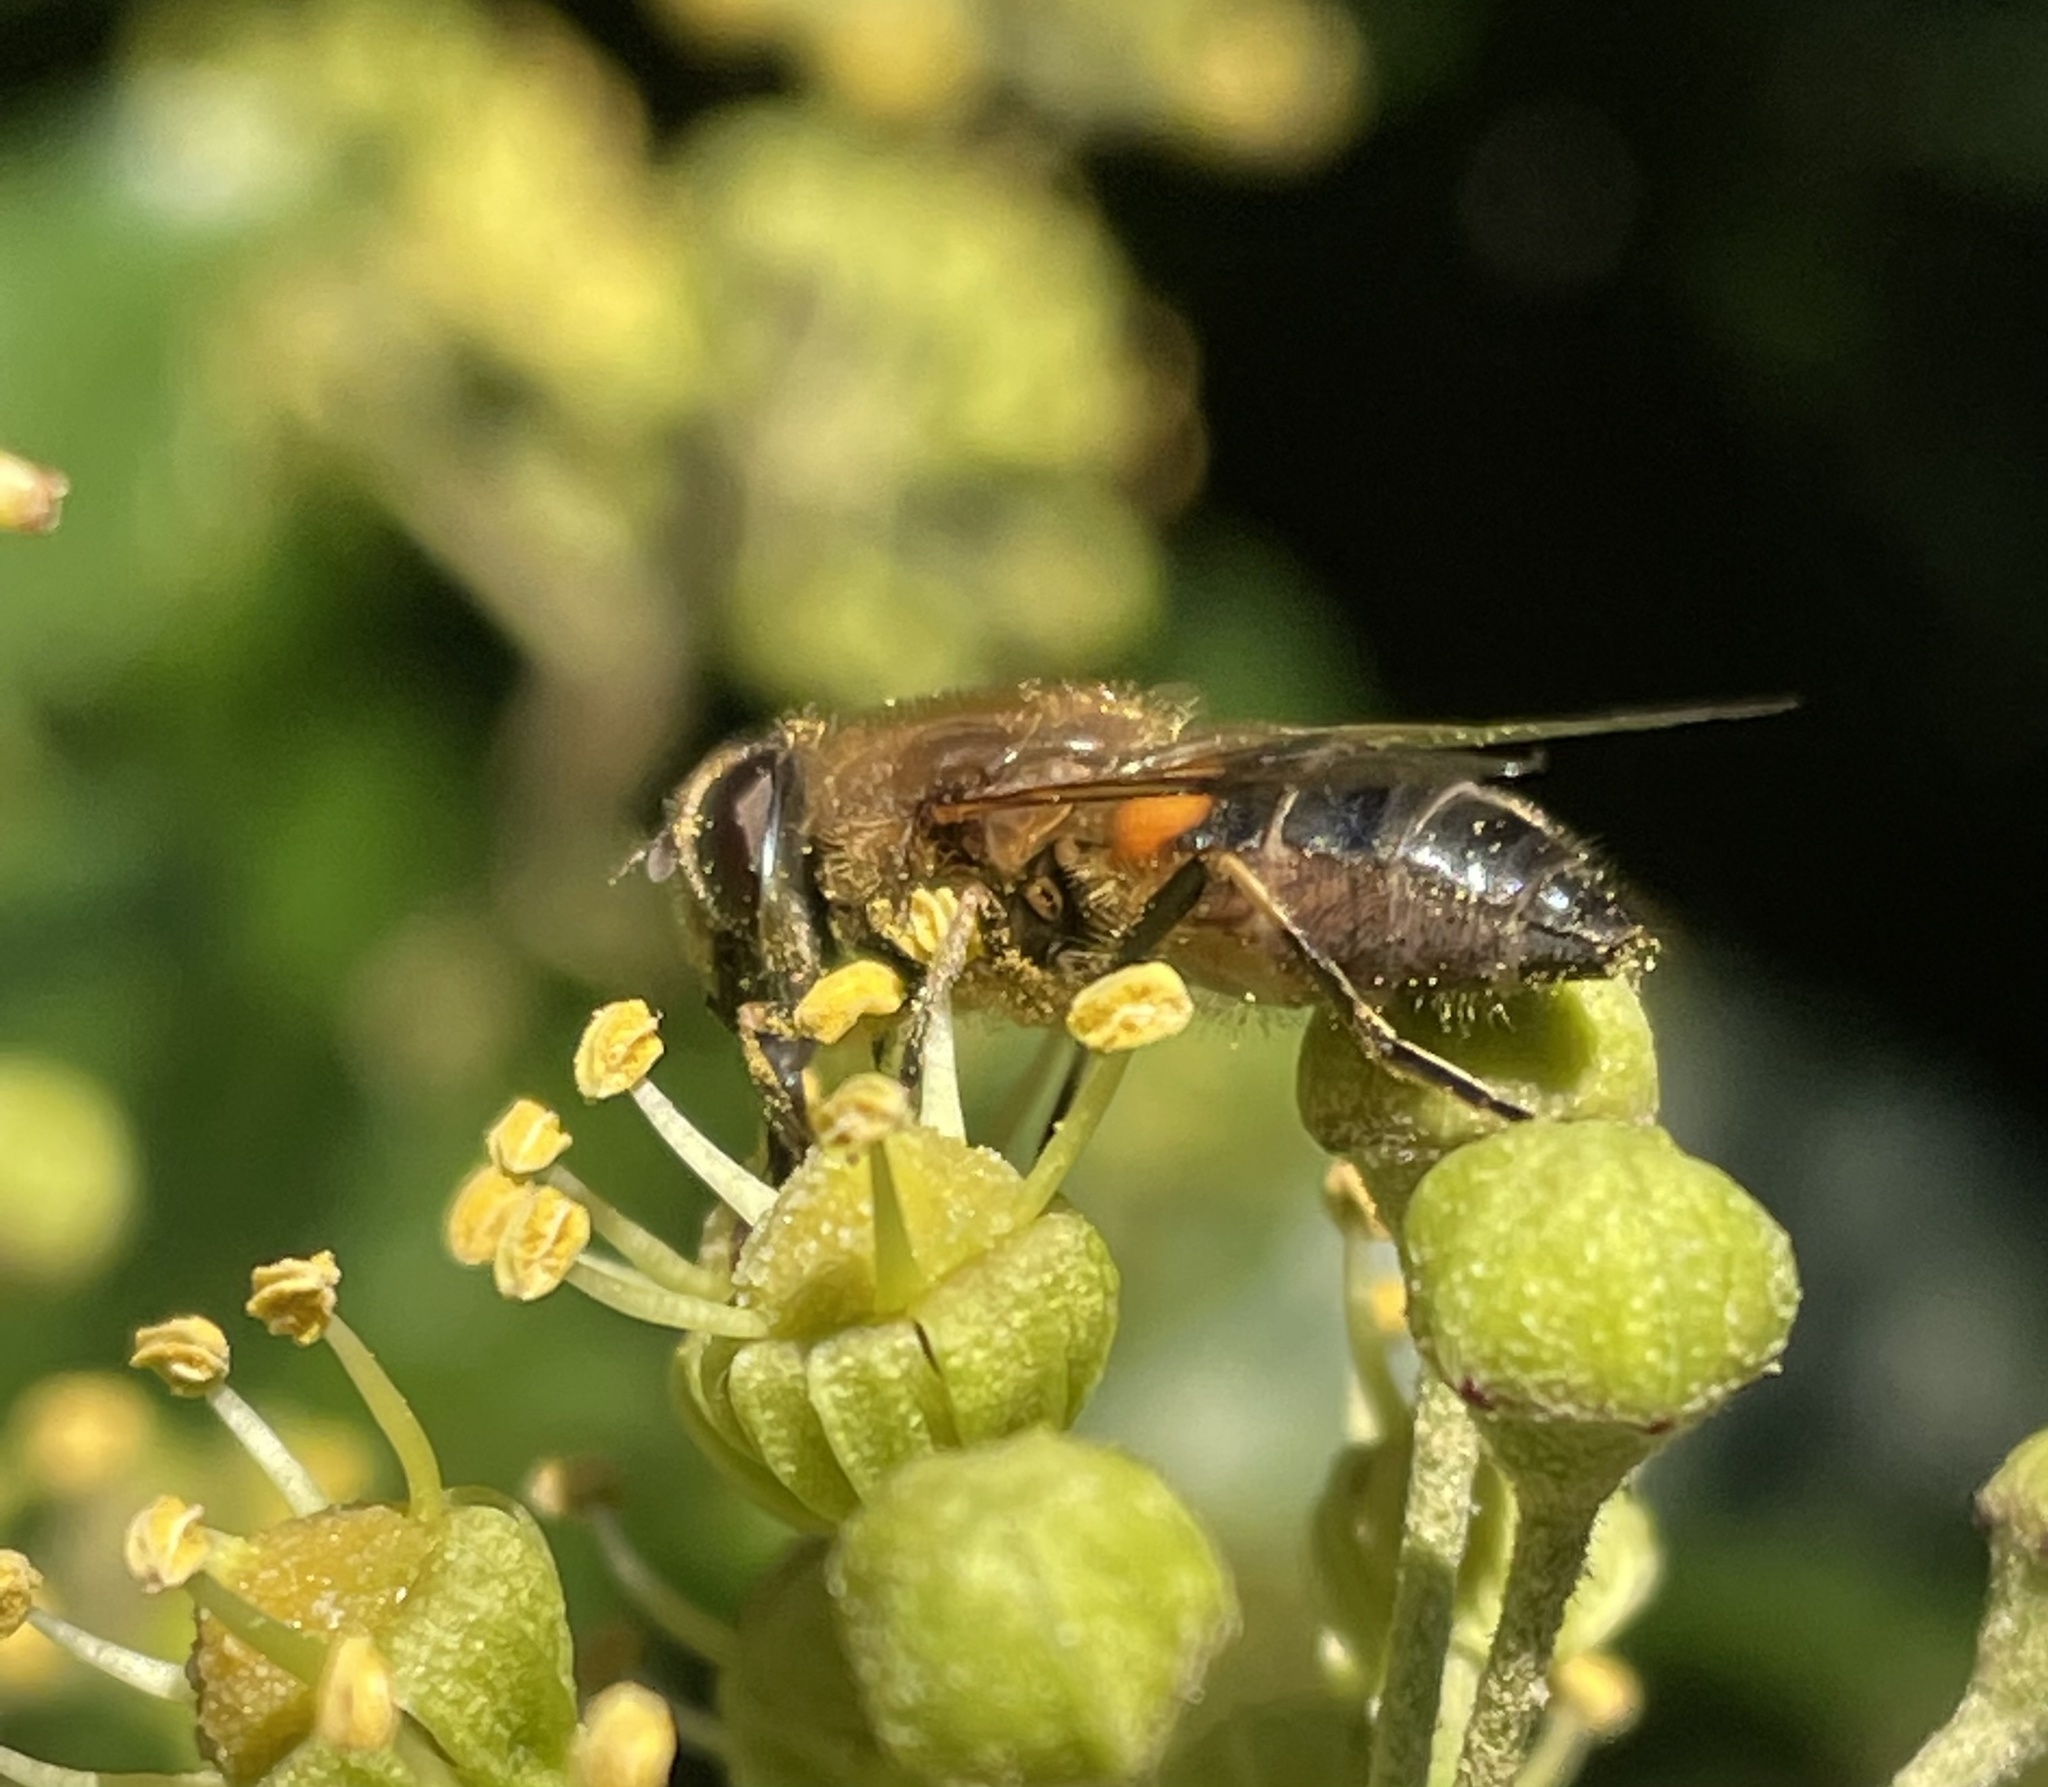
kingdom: Animalia
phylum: Arthropoda
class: Insecta
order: Diptera
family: Syrphidae
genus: Eoseristalis
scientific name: Eoseristalis
